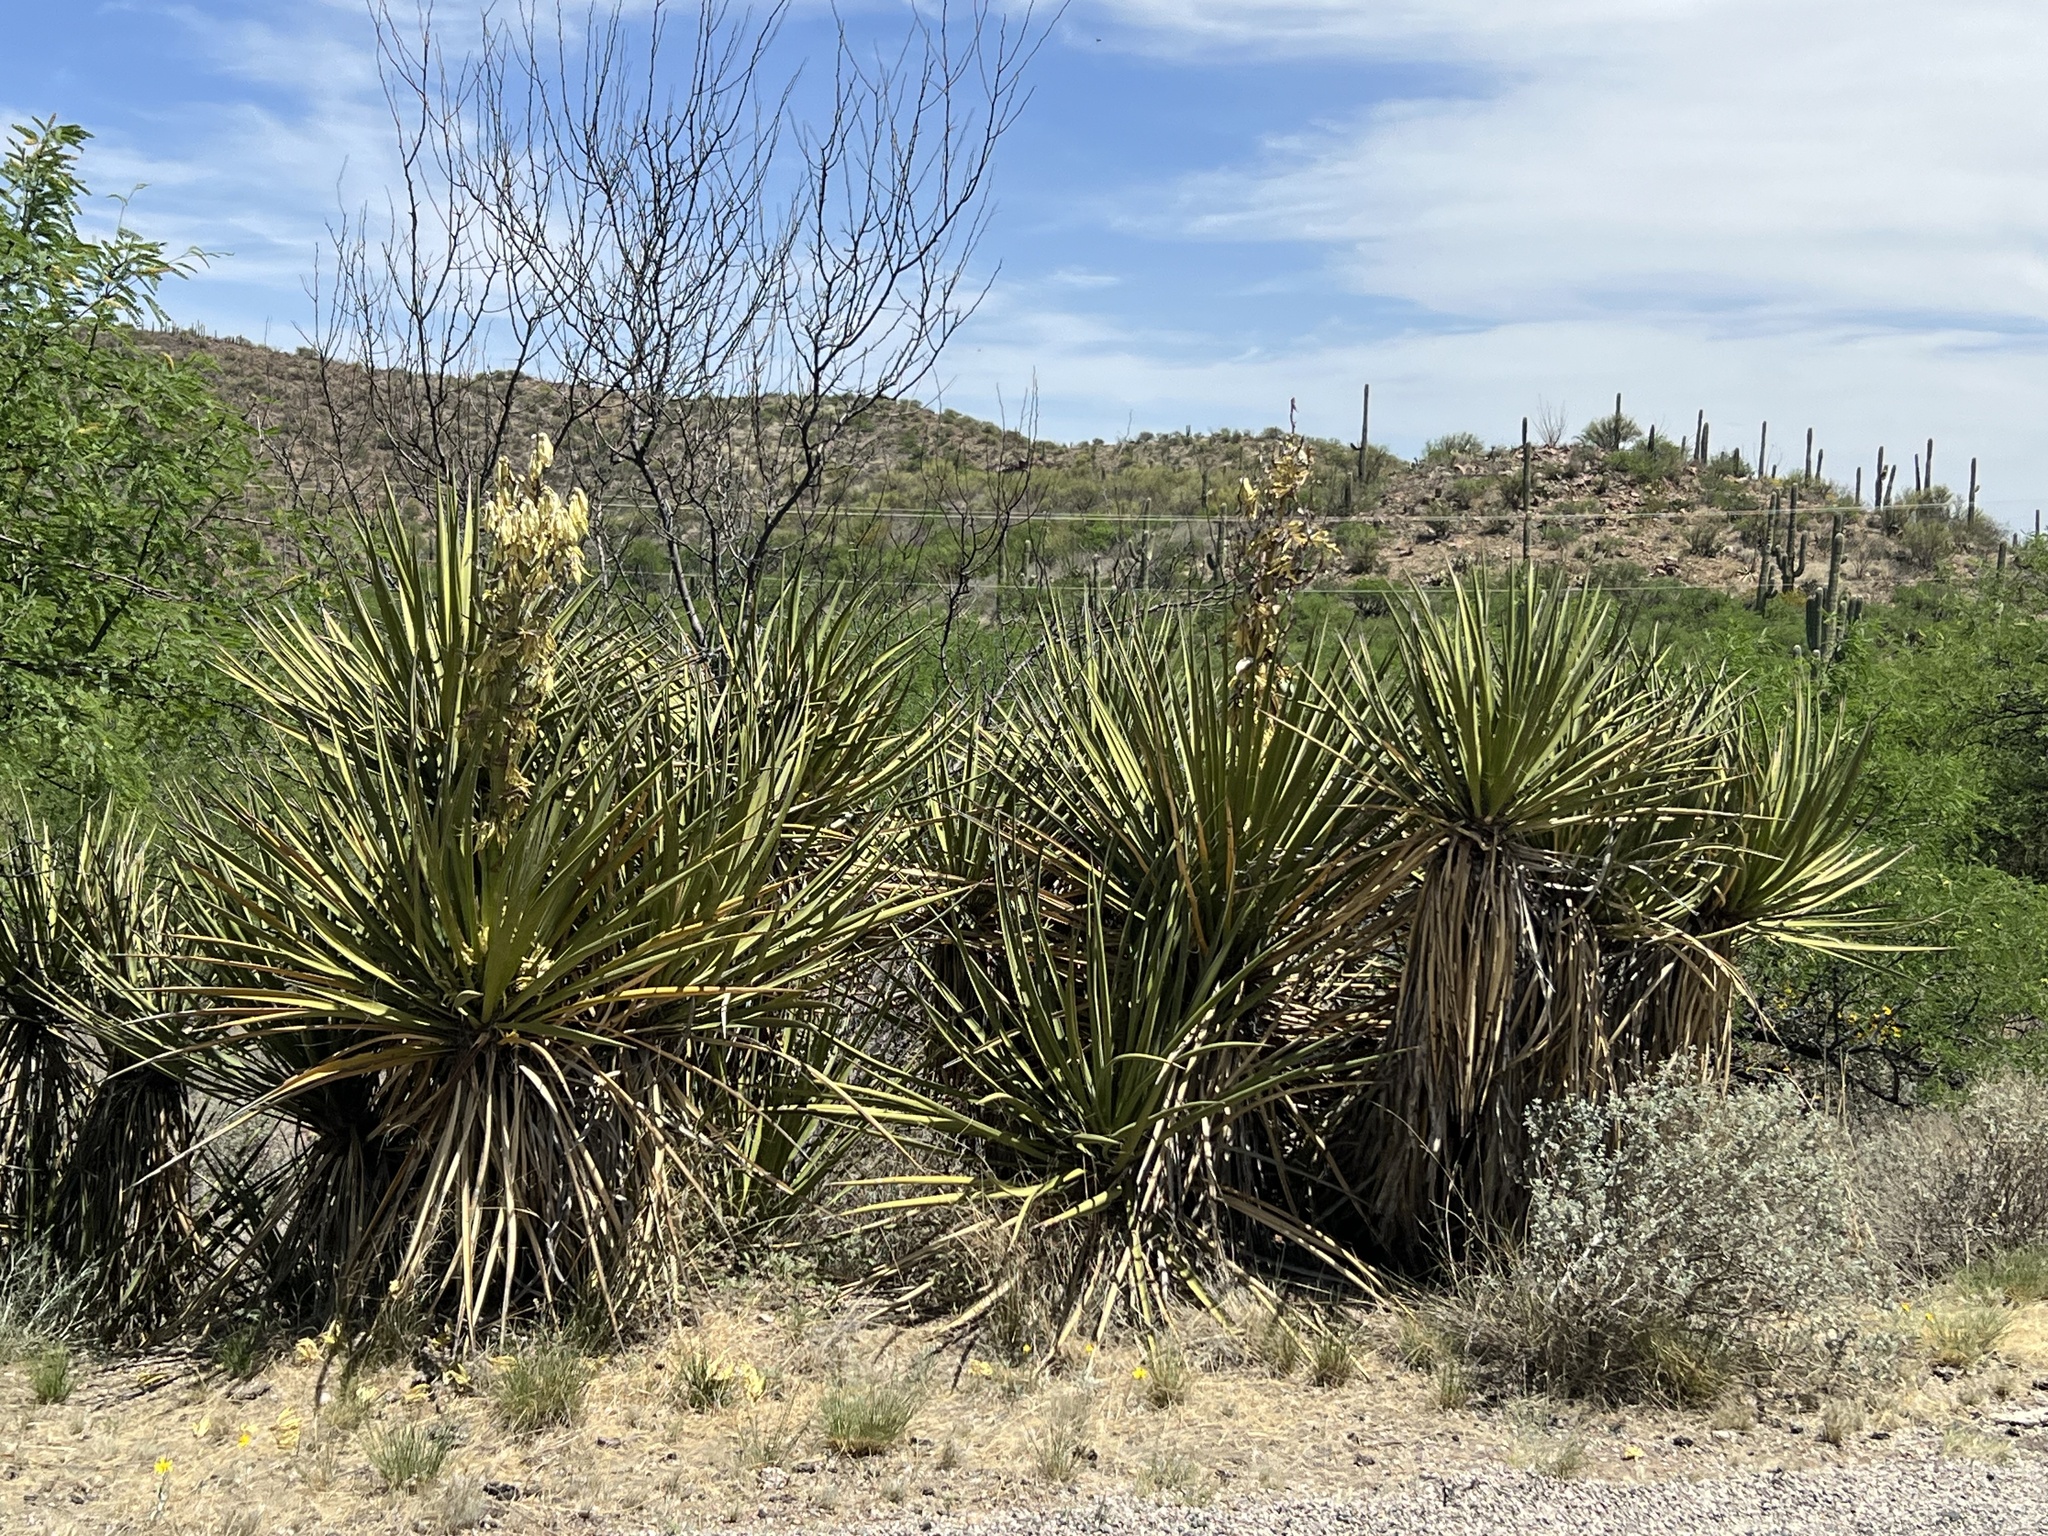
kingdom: Plantae
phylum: Tracheophyta
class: Liliopsida
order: Asparagales
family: Asparagaceae
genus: Yucca
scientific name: Yucca baccata
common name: Banana yucca
